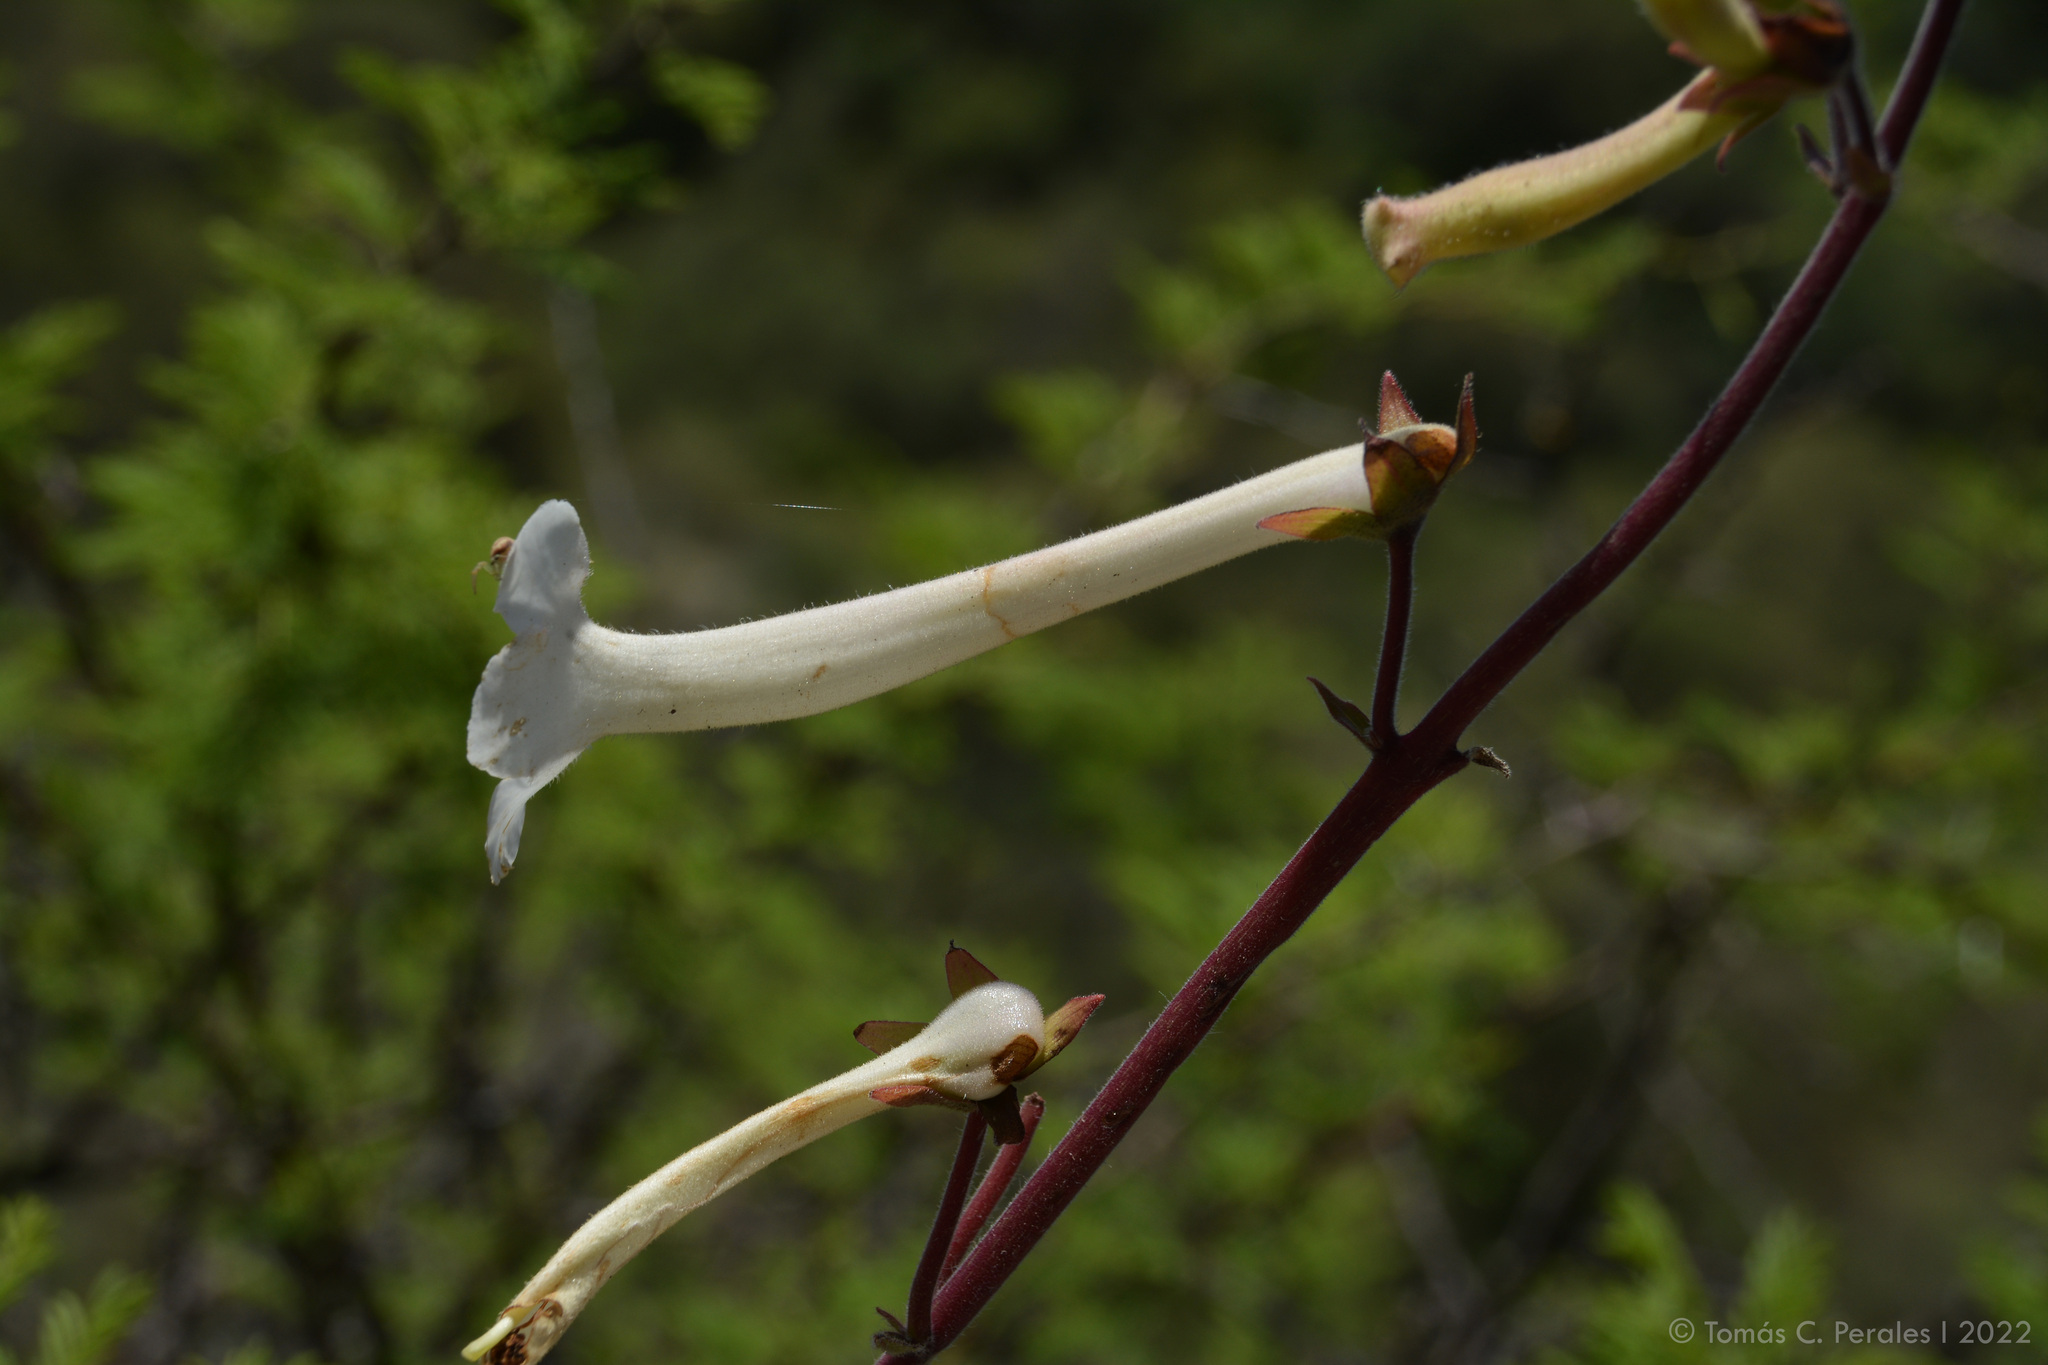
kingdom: Plantae
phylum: Tracheophyta
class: Magnoliopsida
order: Lamiales
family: Gesneriaceae
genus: Sinningia
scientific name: Sinningia tubiflora
